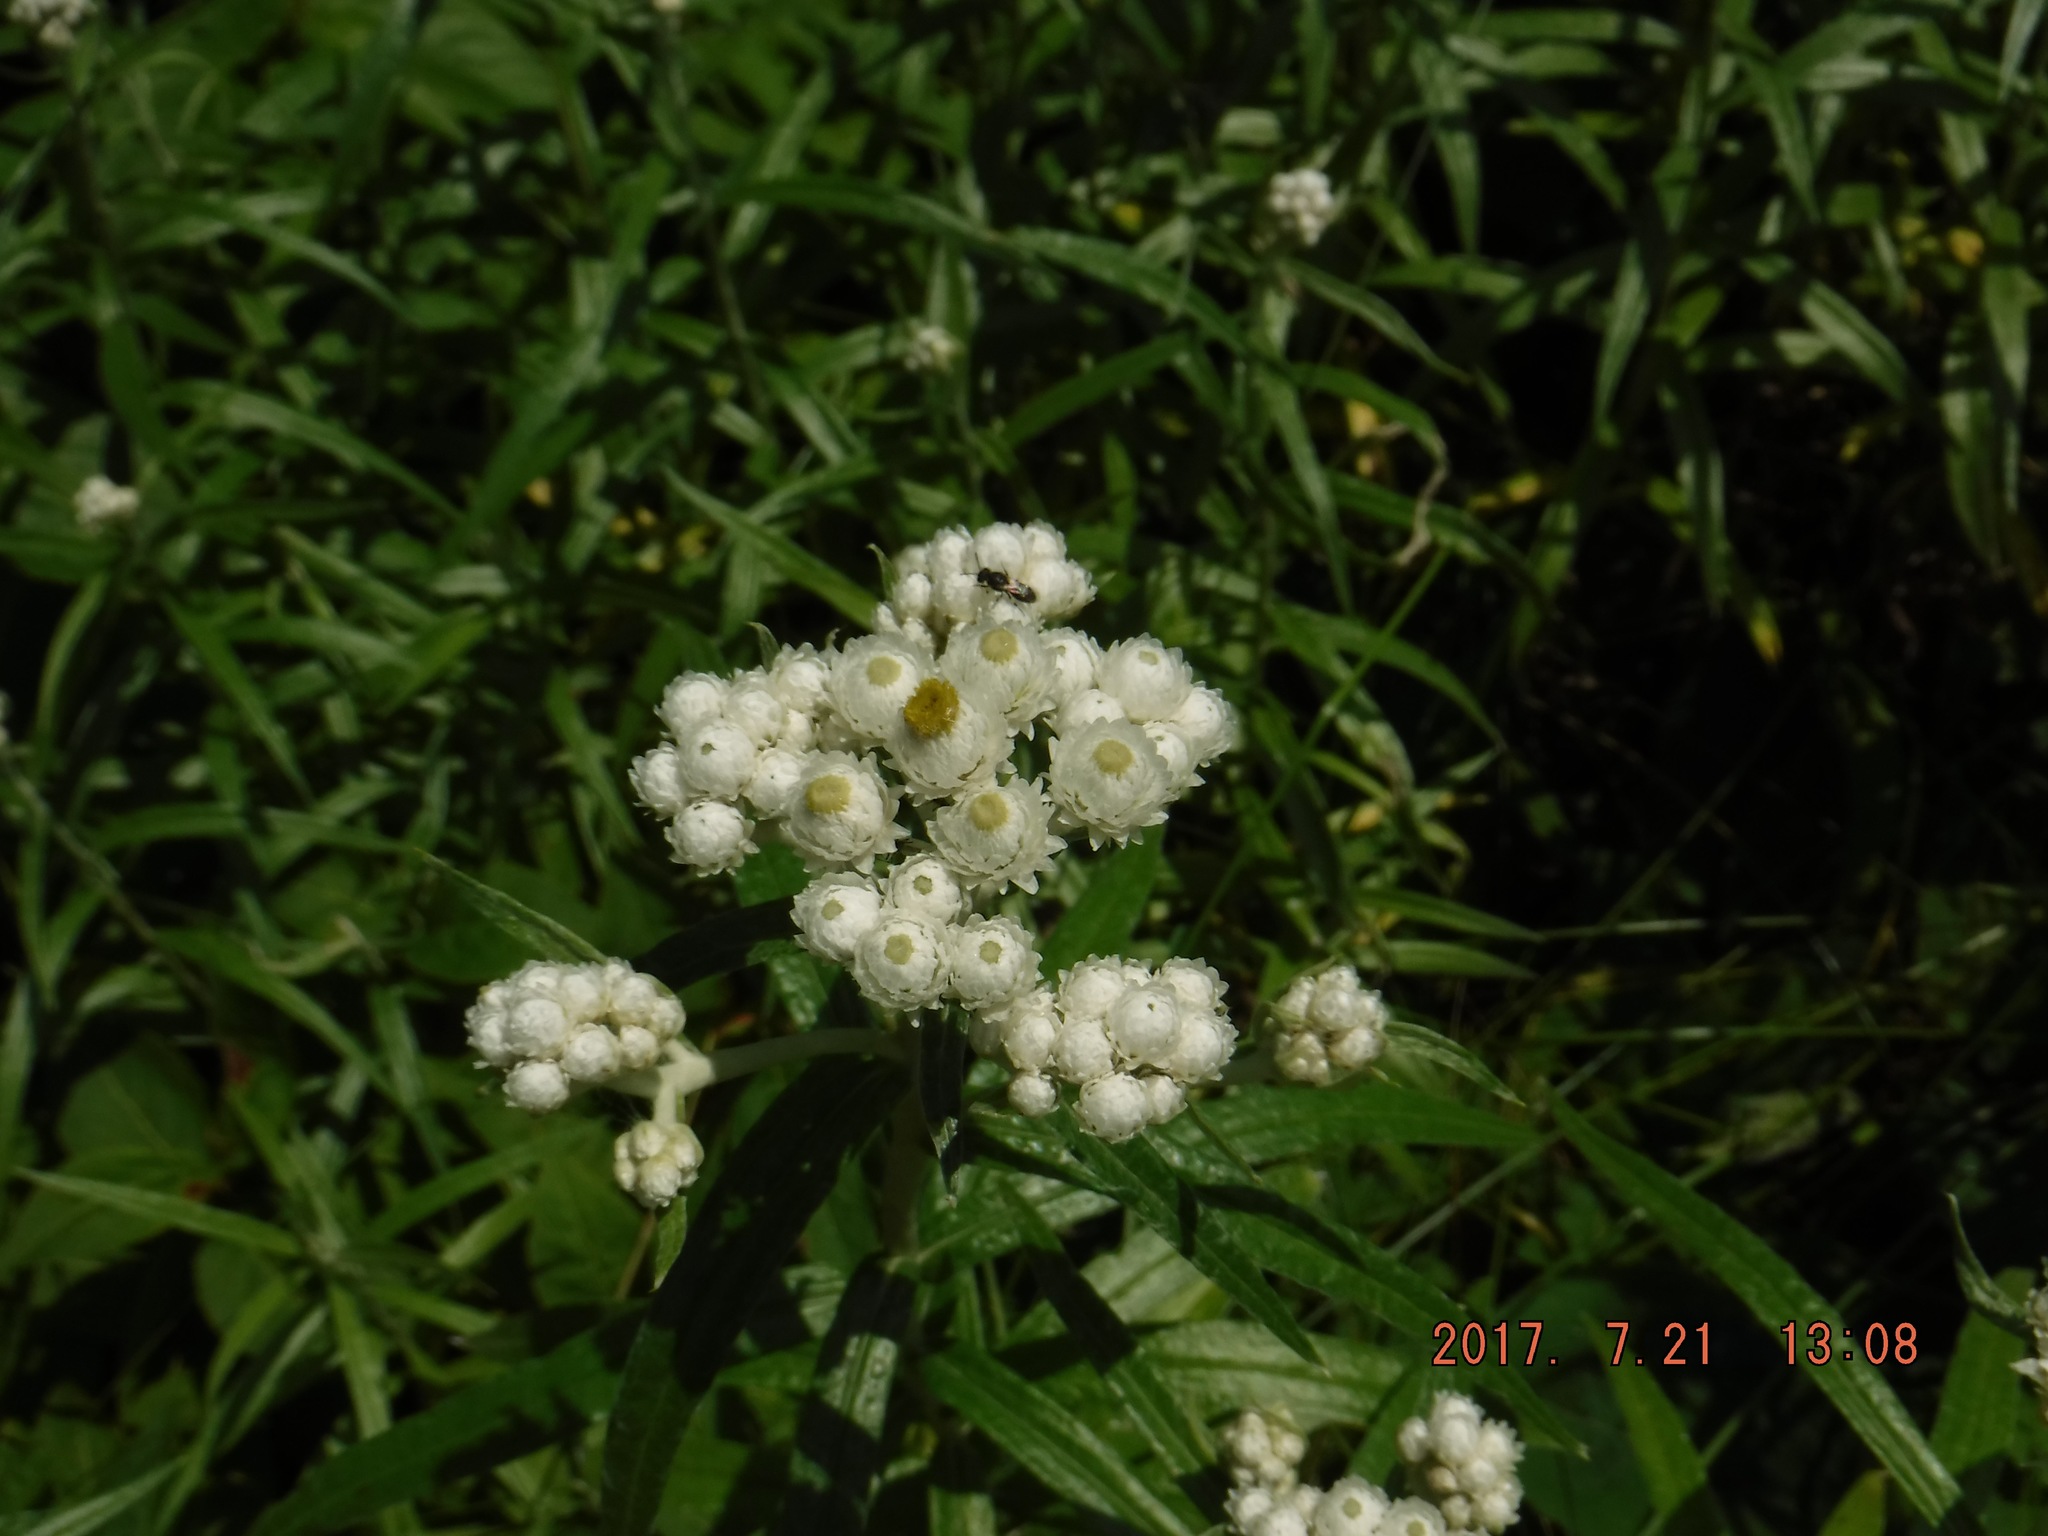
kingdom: Plantae
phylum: Tracheophyta
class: Magnoliopsida
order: Asterales
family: Asteraceae
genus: Anaphalis
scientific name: Anaphalis margaritacea
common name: Pearly everlasting
